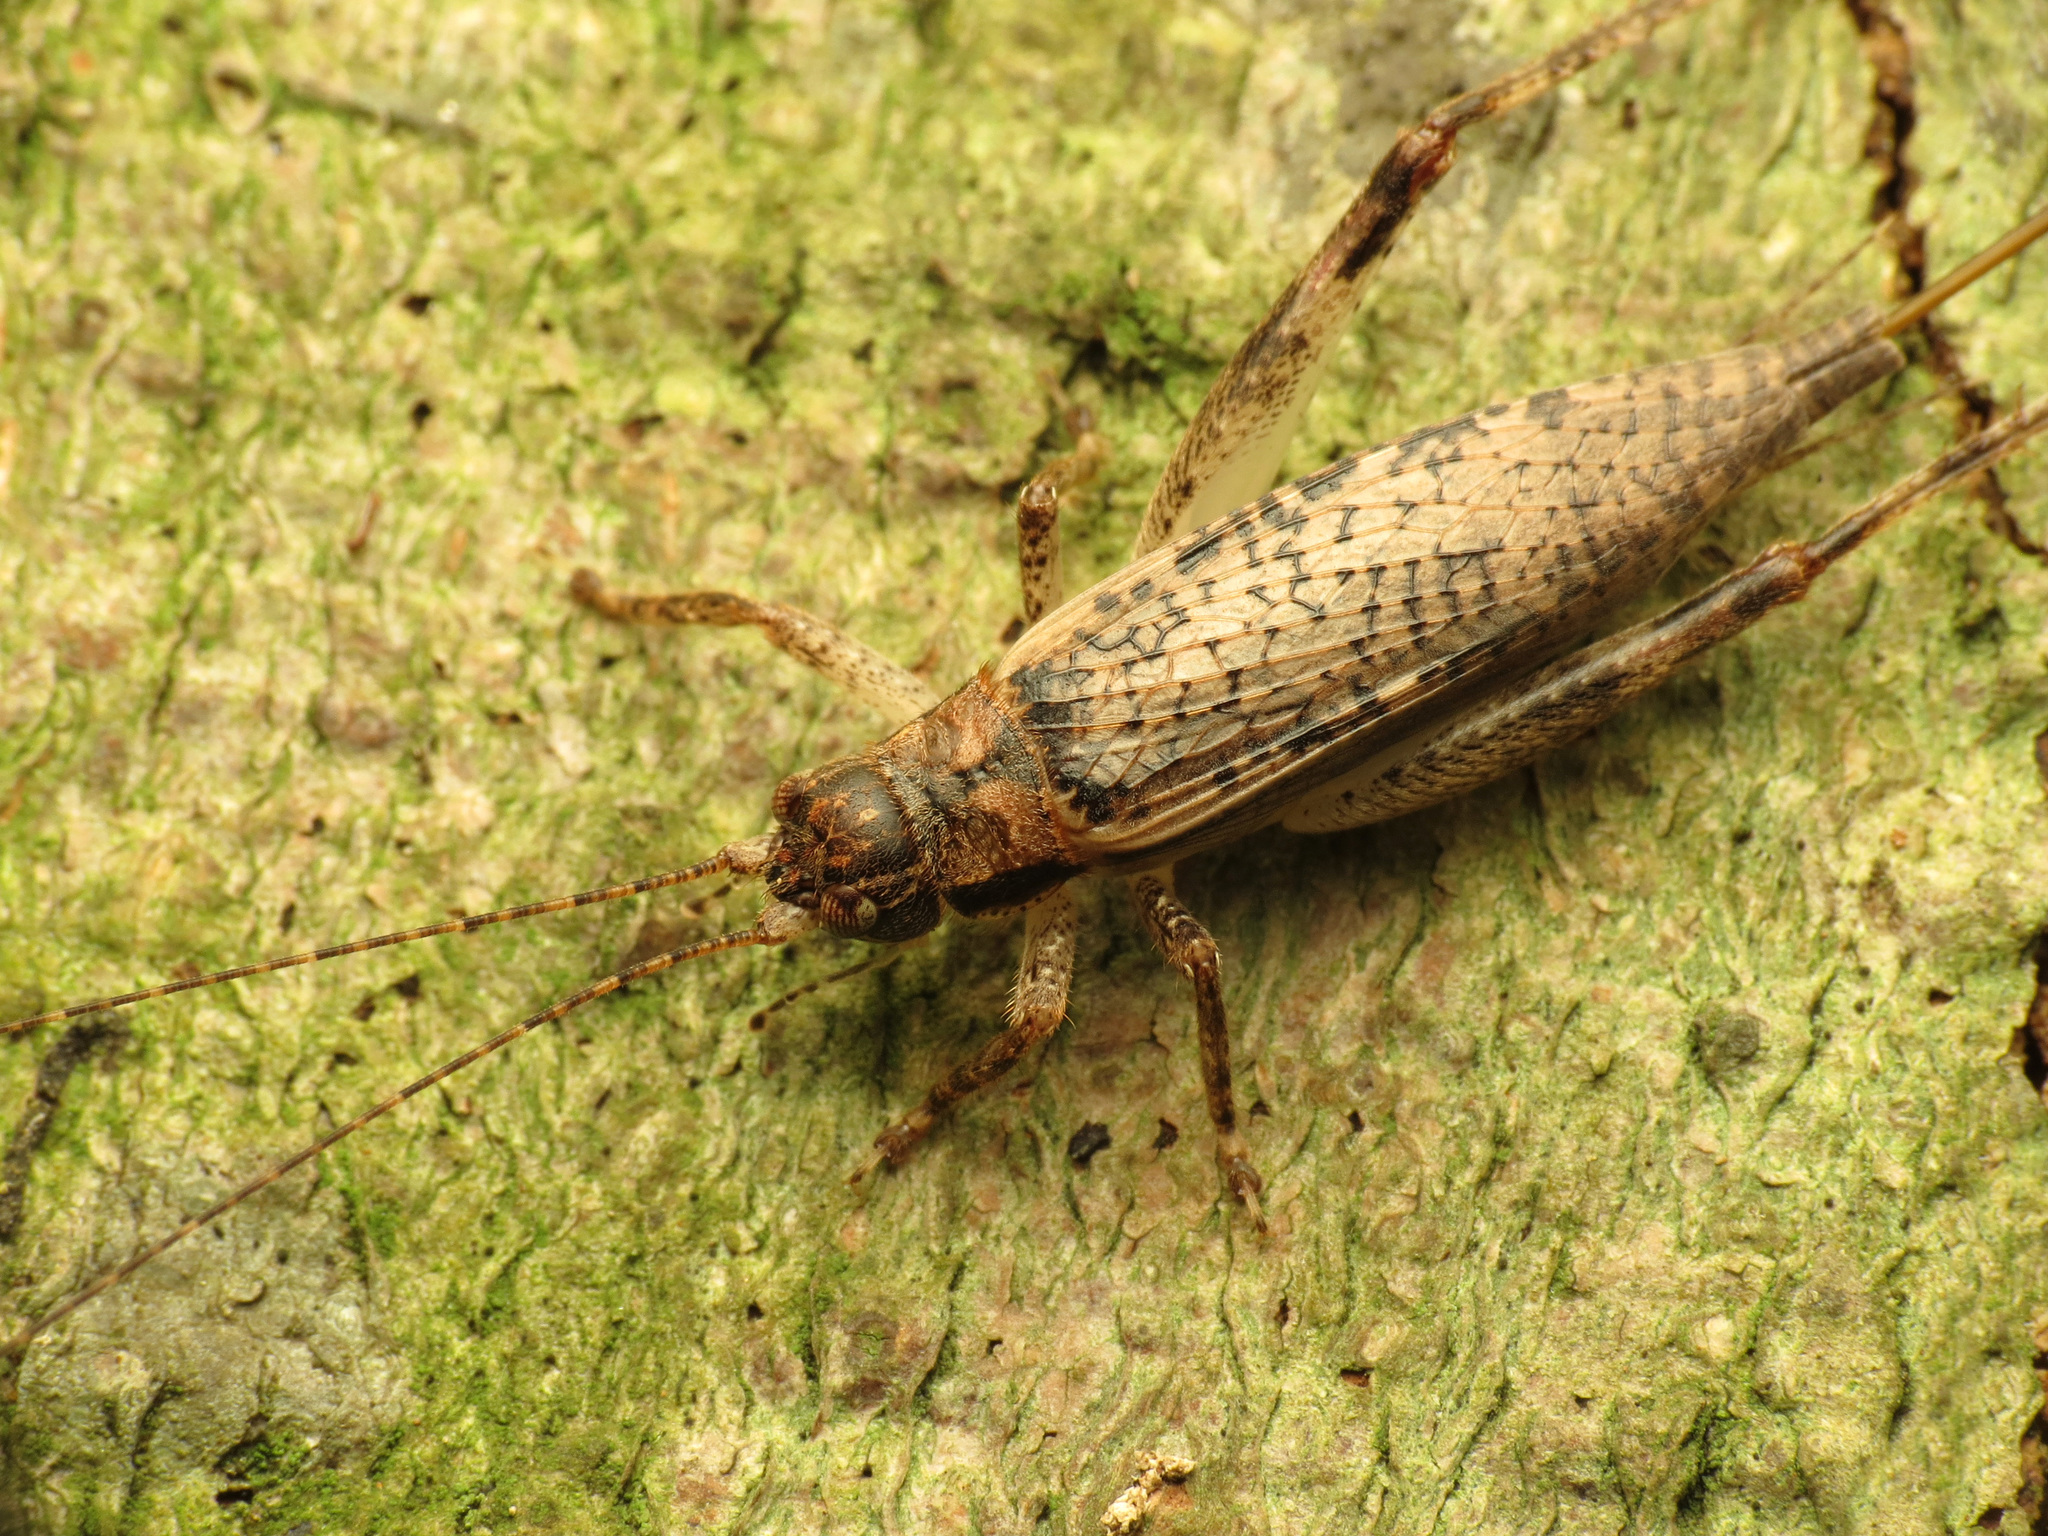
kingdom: Animalia
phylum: Arthropoda
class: Insecta
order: Orthoptera
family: Gryllidae
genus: Hapithus
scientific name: Hapithus saltator
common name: Jumping bush cricket
